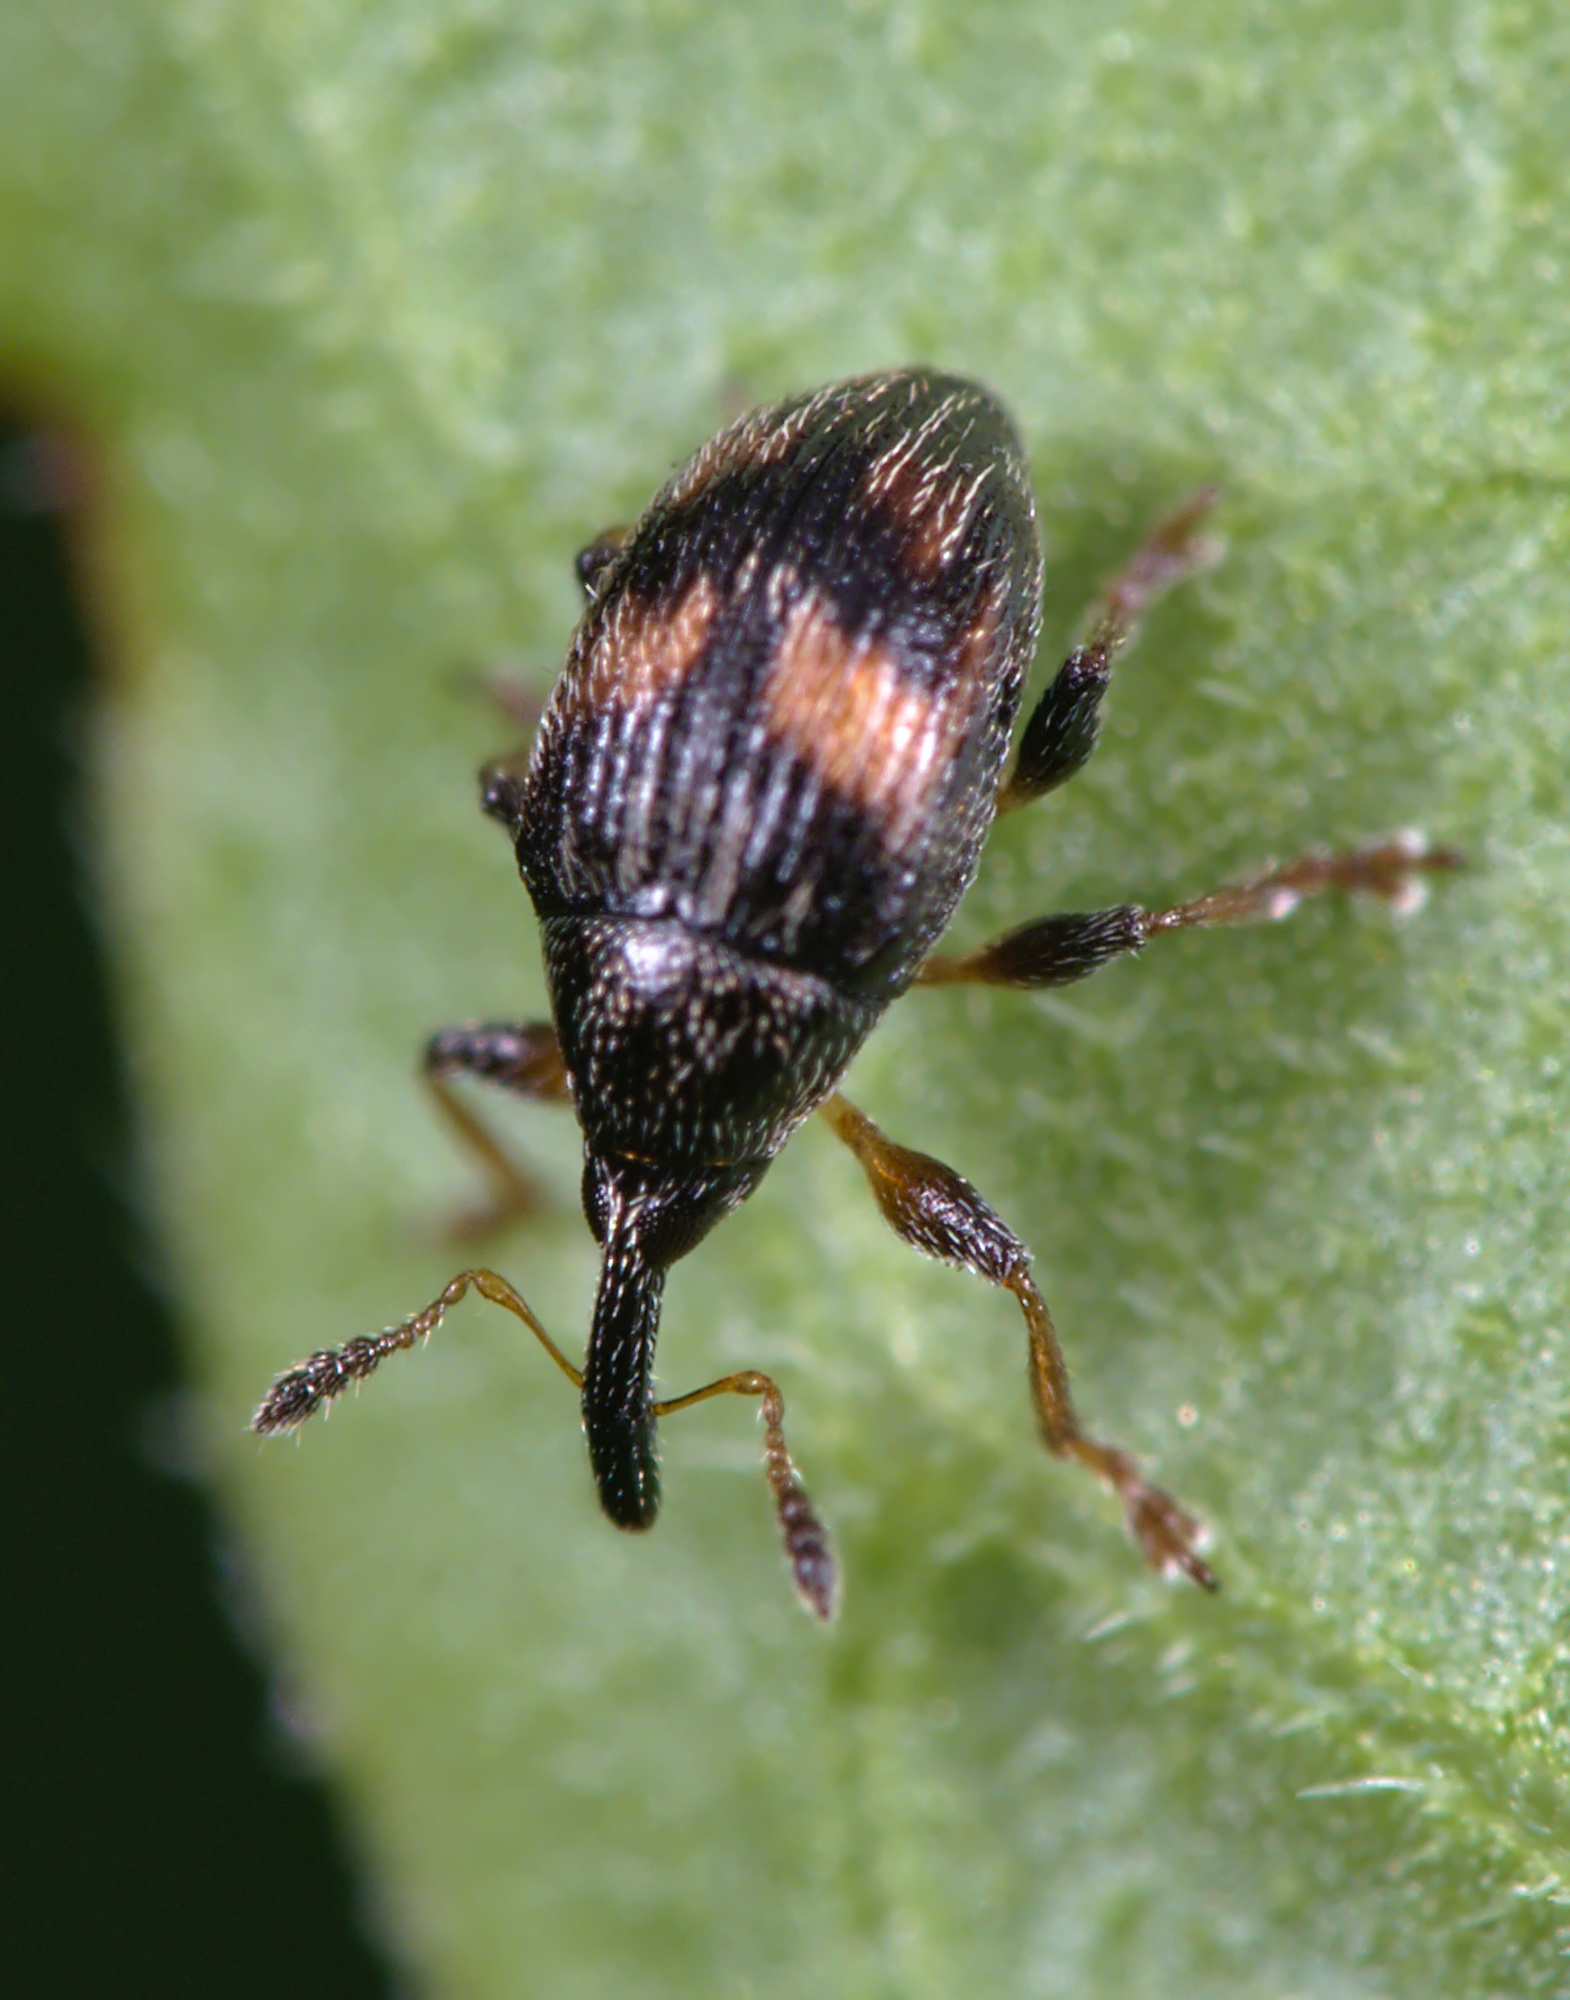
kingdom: Animalia
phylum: Arthropoda
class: Insecta
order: Coleoptera
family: Brentidae
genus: Nanophyes
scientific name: Nanophyes marmoratus
